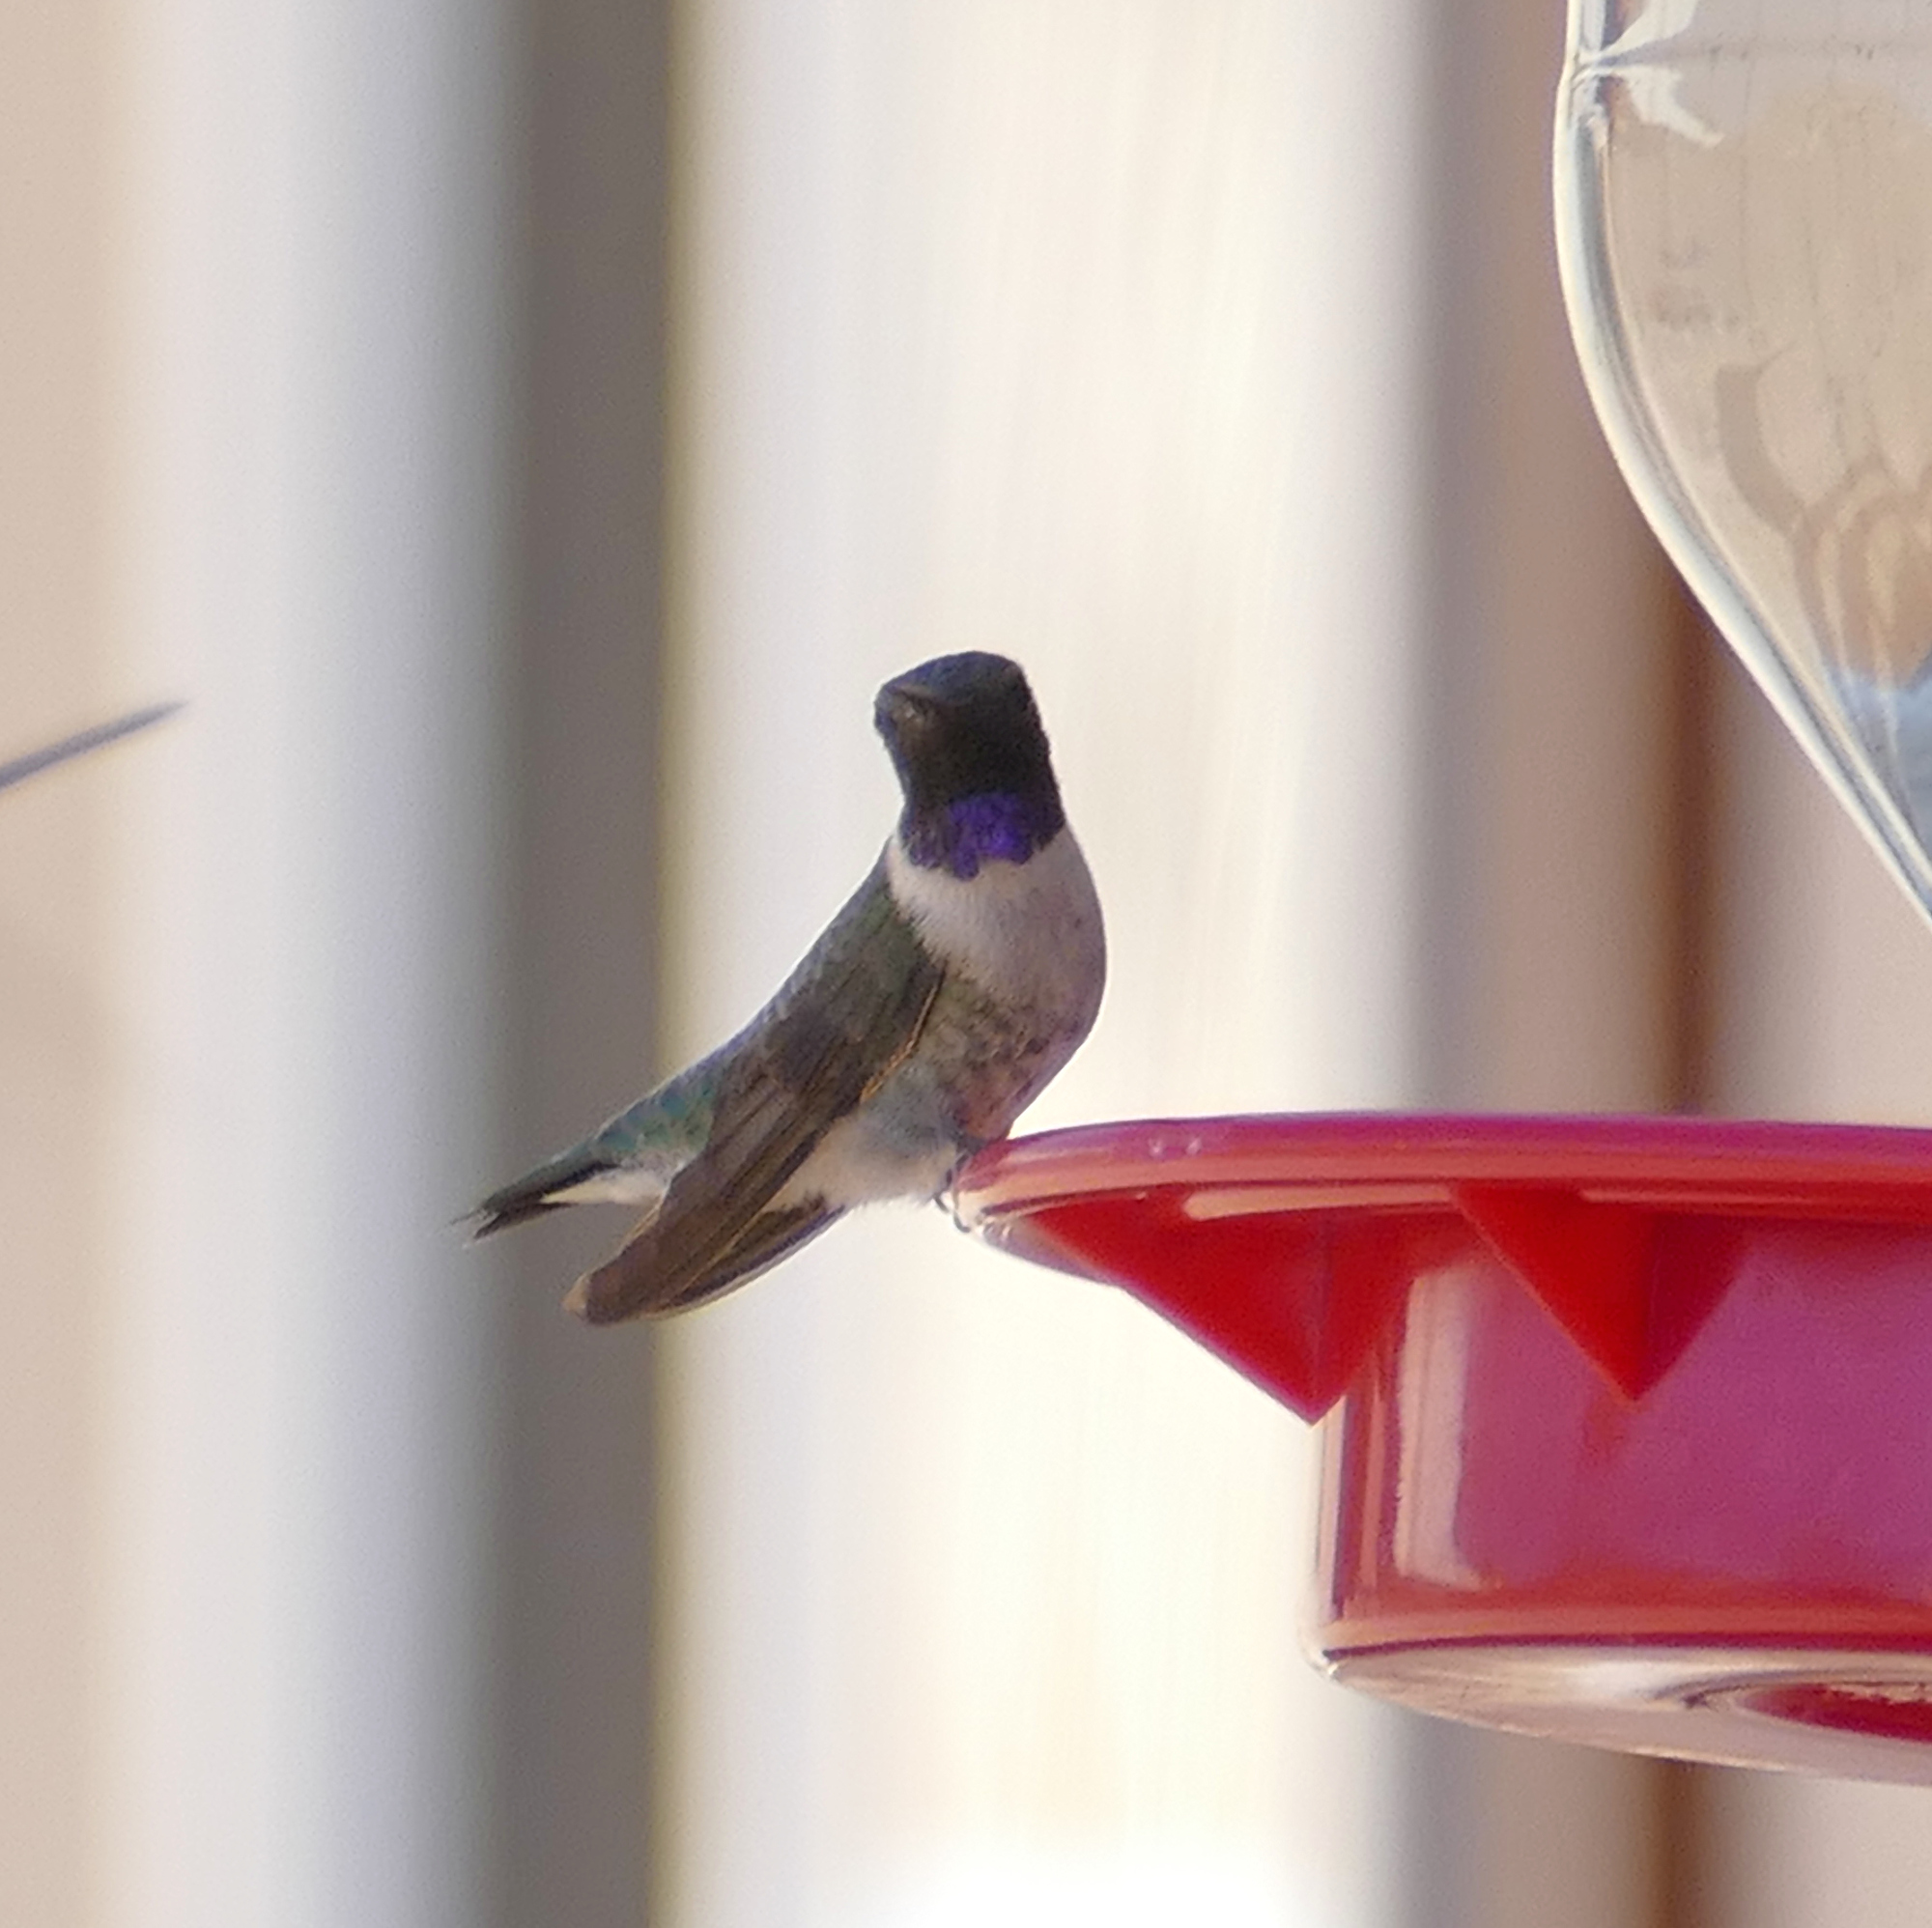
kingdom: Animalia
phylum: Chordata
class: Aves
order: Apodiformes
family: Trochilidae
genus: Archilochus
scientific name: Archilochus alexandri
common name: Black-chinned hummingbird
